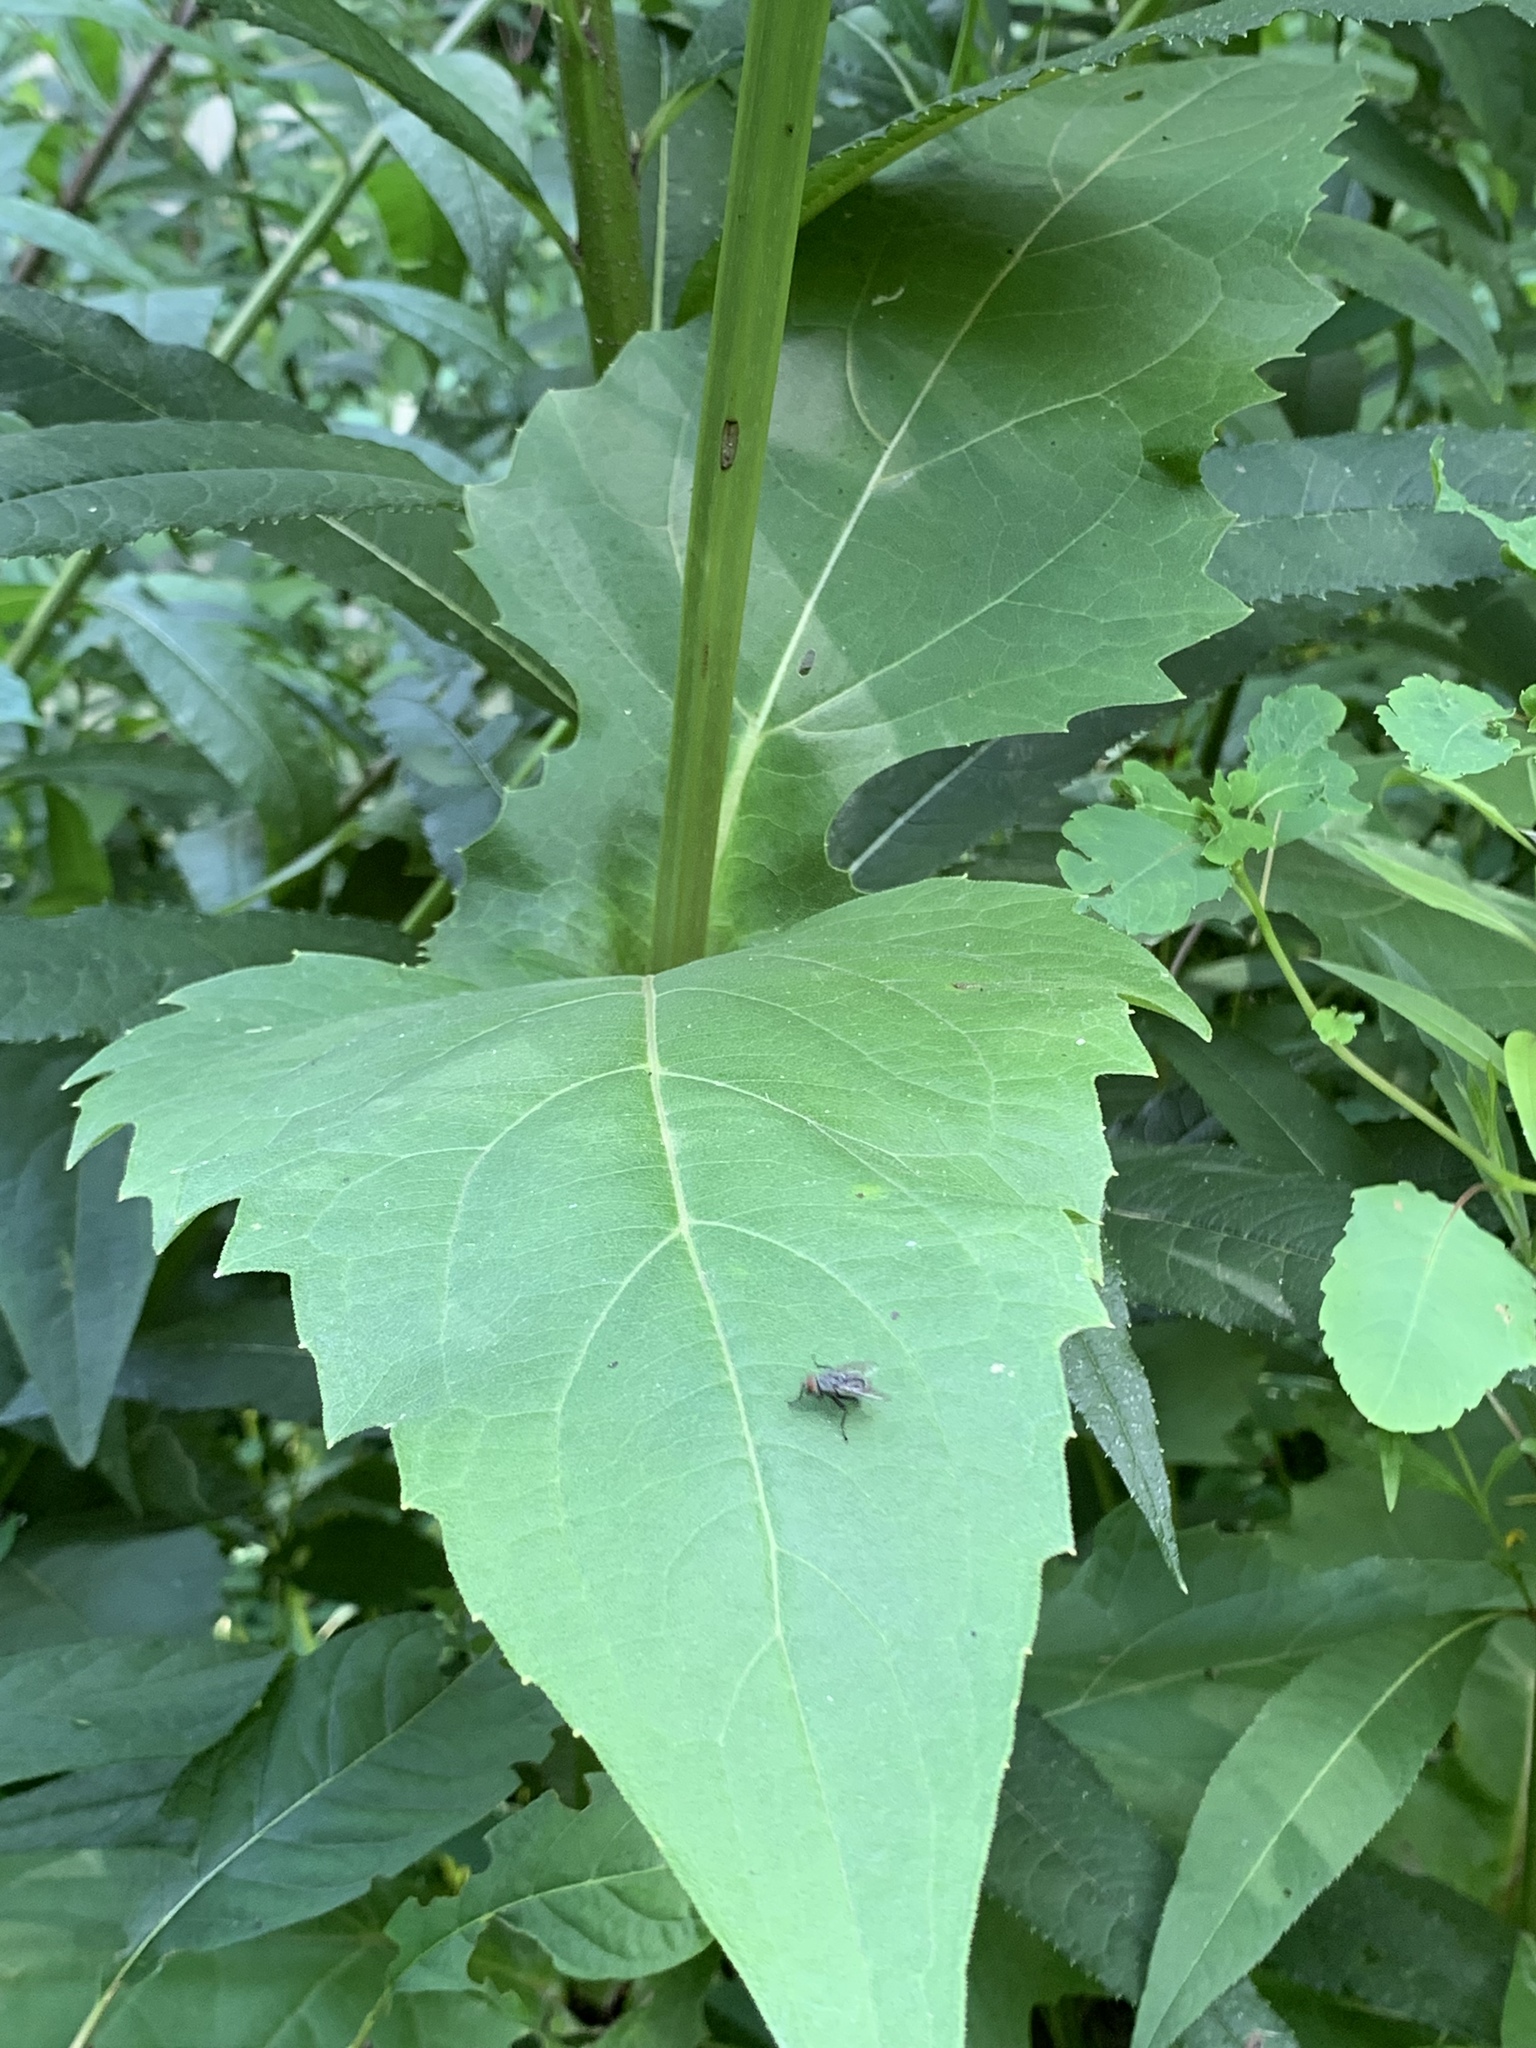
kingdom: Plantae
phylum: Tracheophyta
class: Magnoliopsida
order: Asterales
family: Asteraceae
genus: Silphium
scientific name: Silphium perfoliatum
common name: Cup-plant
